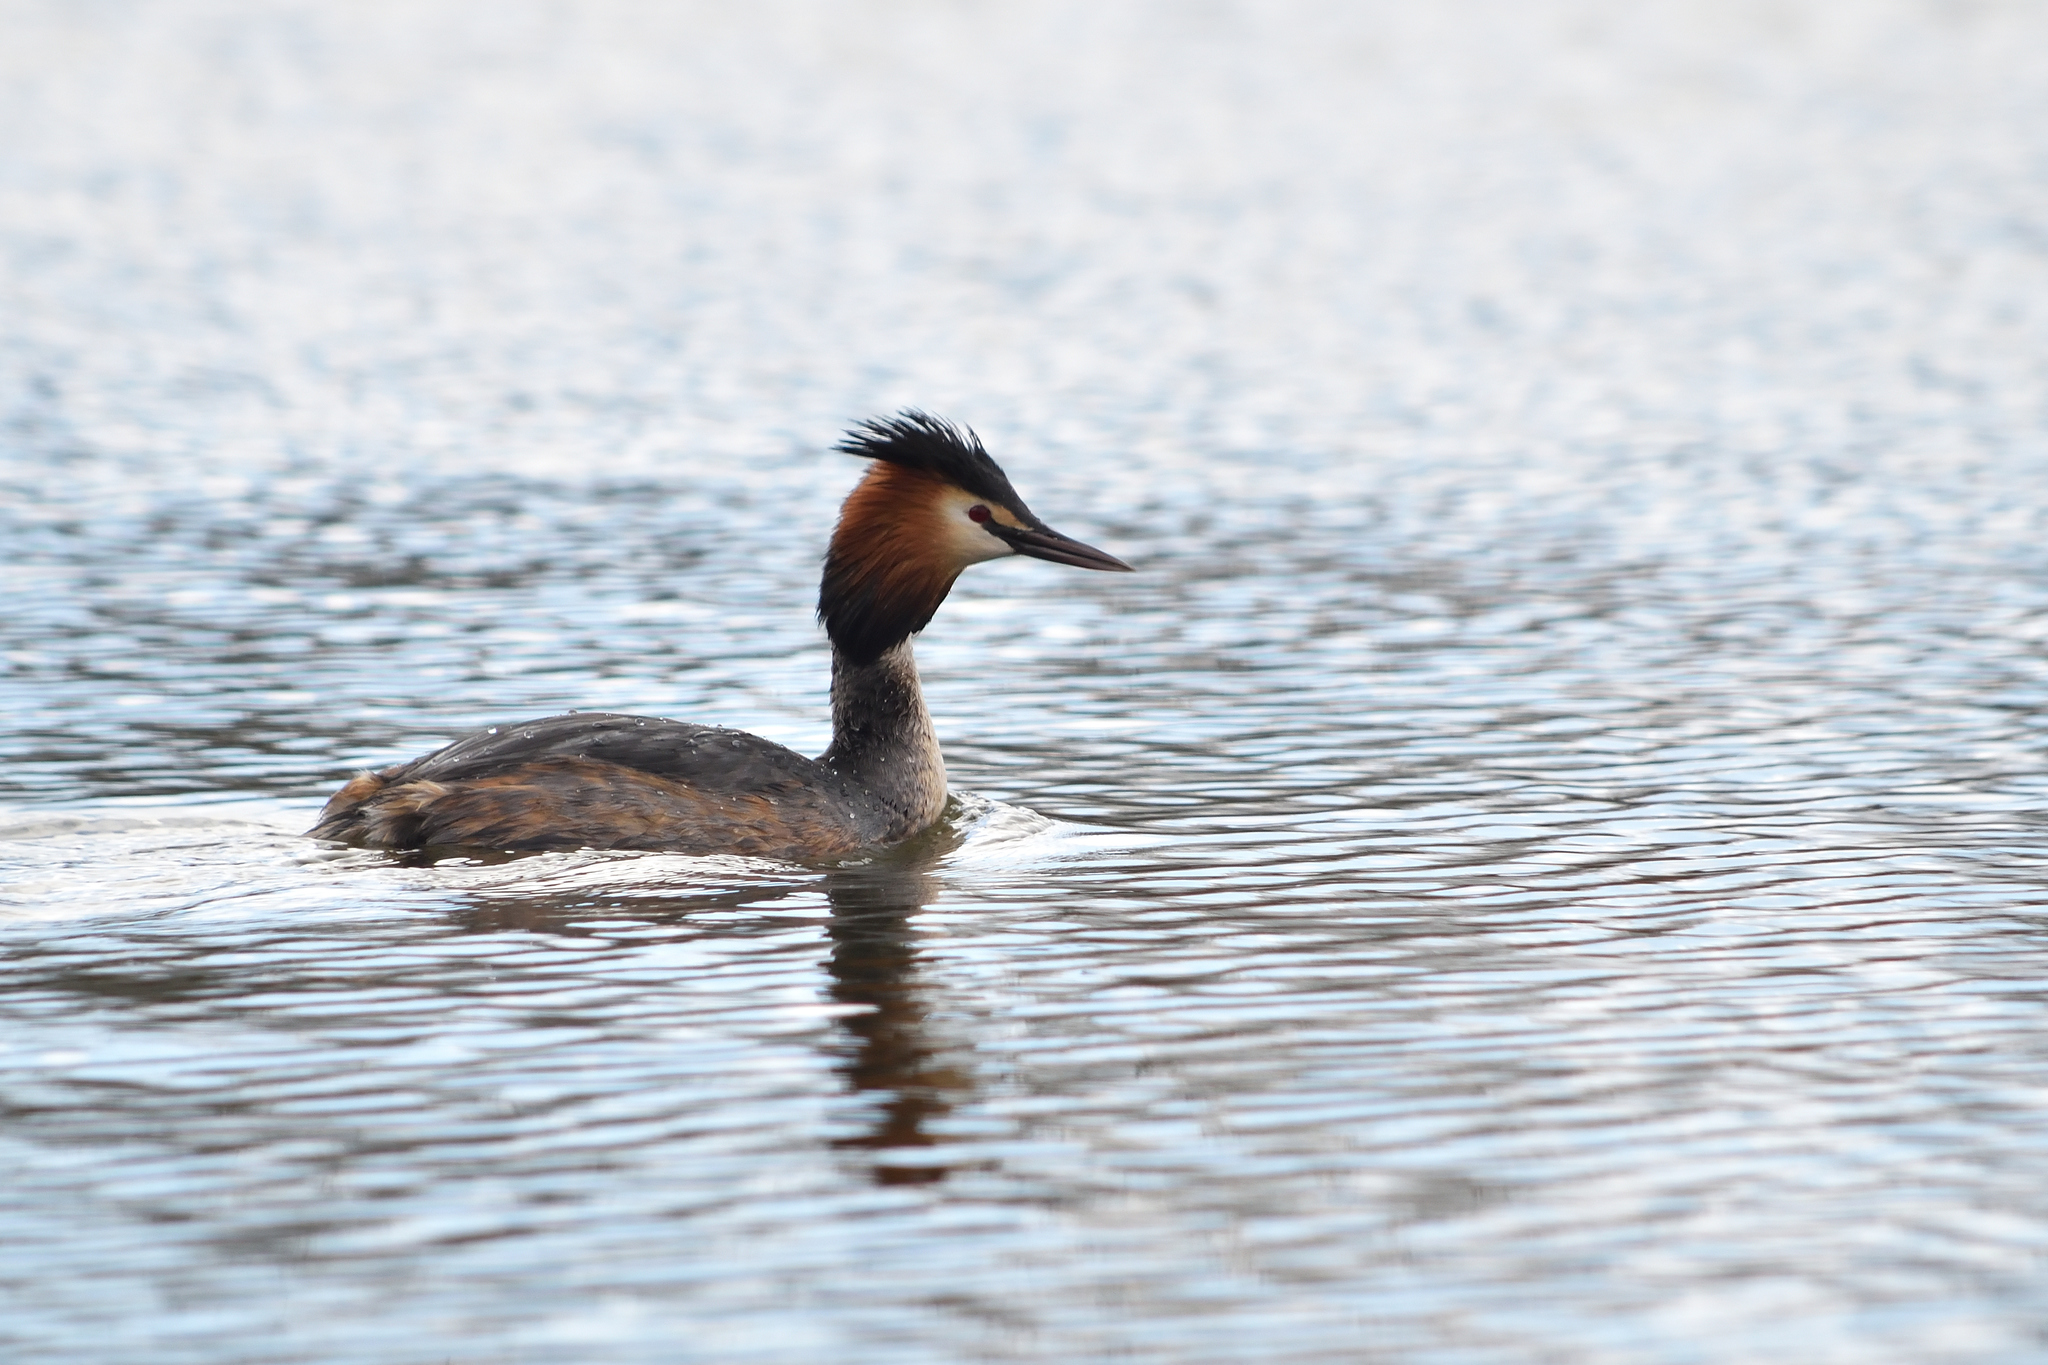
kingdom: Animalia
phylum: Chordata
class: Aves
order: Podicipediformes
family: Podicipedidae
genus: Podiceps
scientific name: Podiceps cristatus
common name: Great crested grebe
